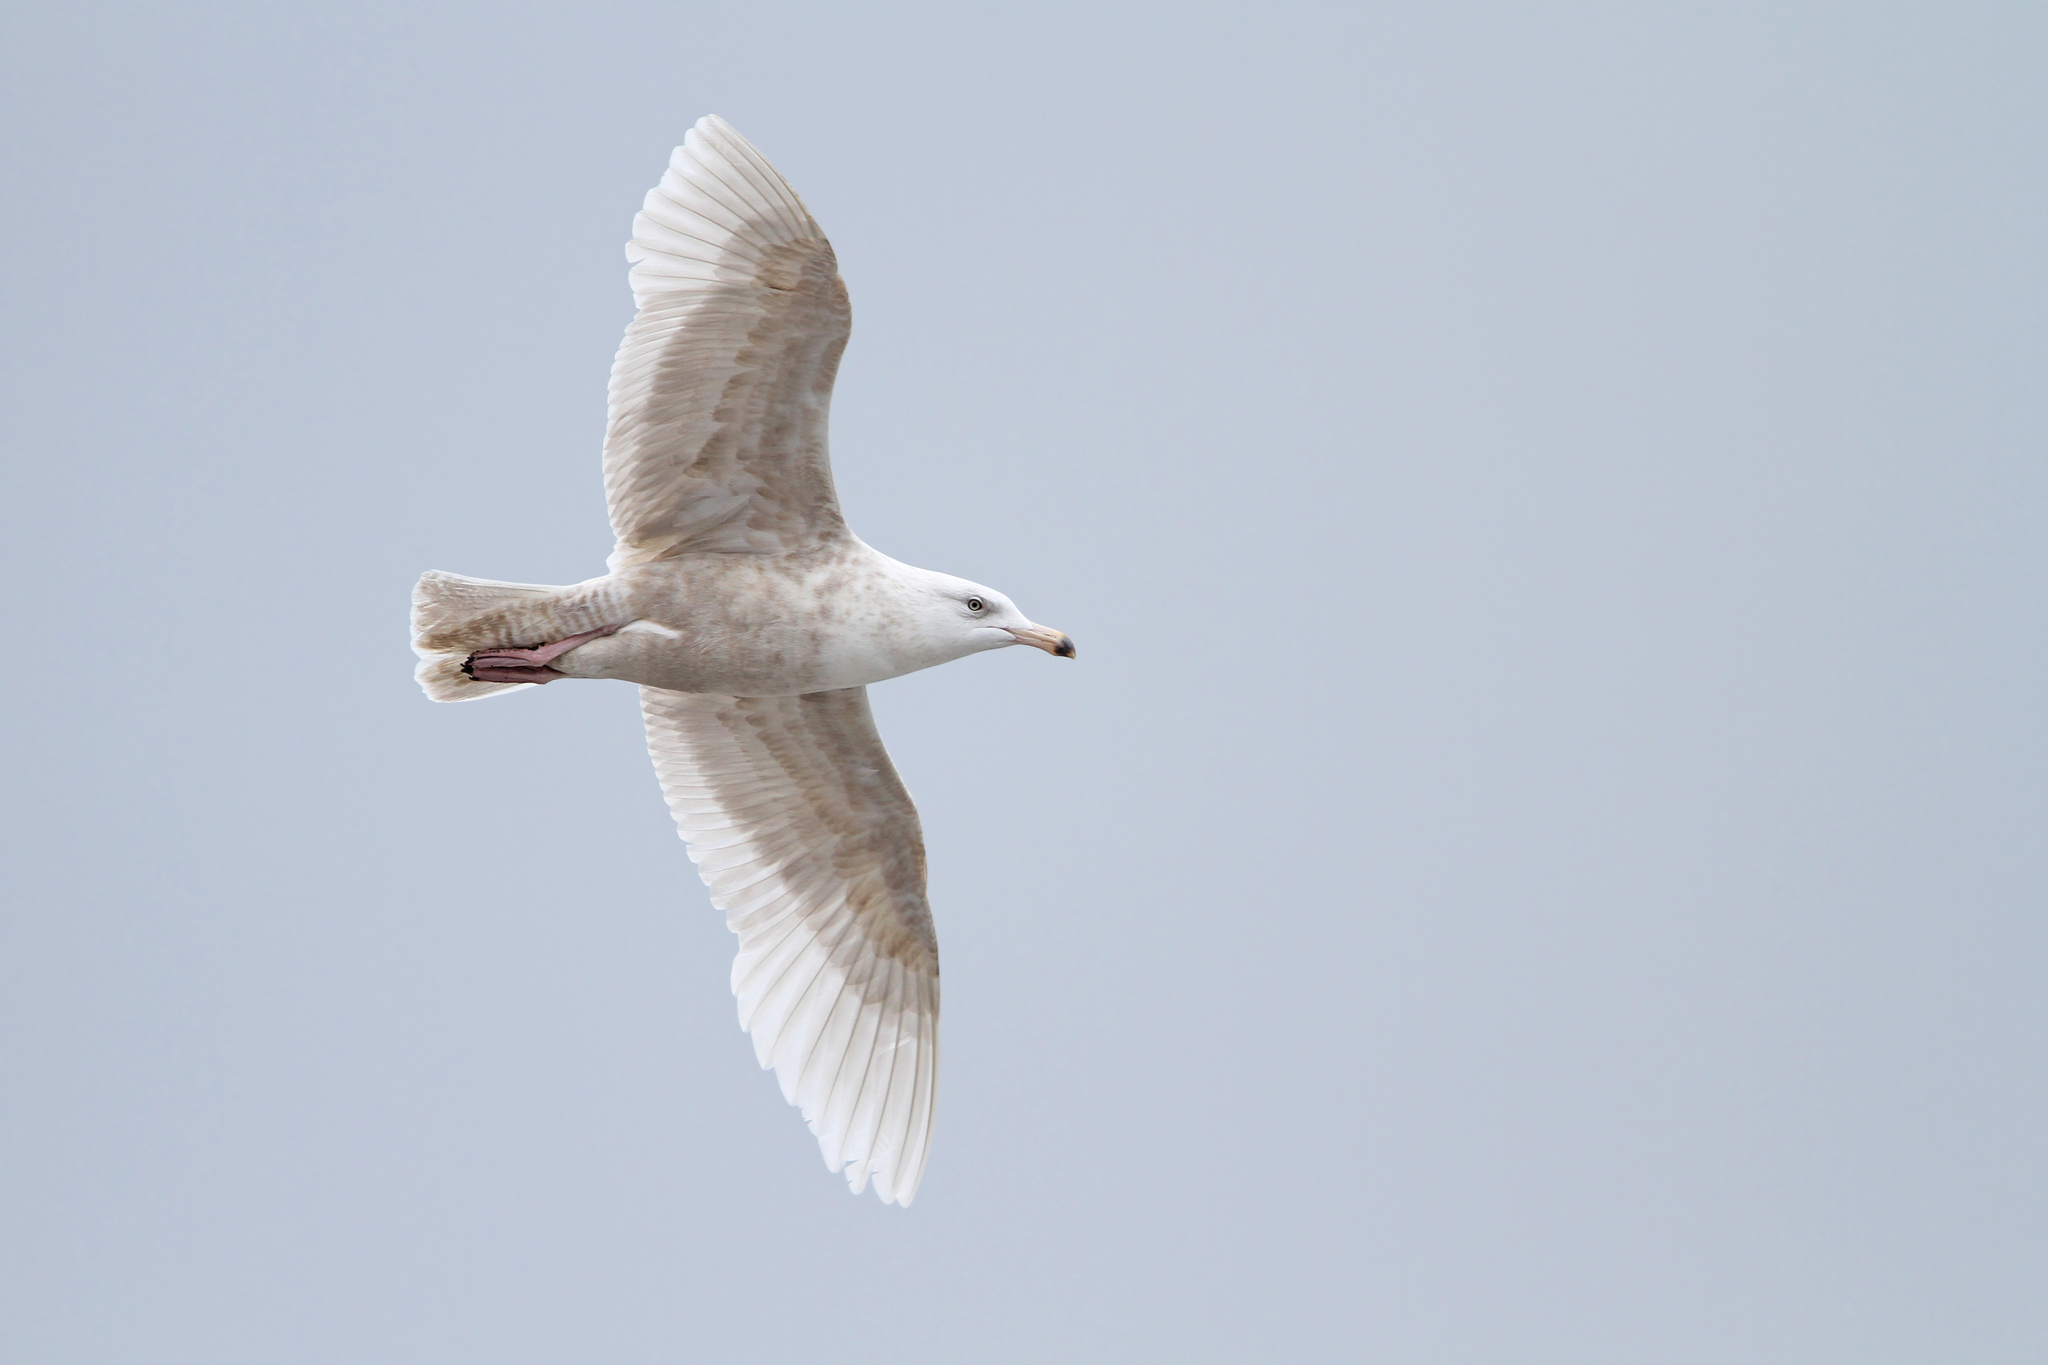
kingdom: Animalia
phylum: Chordata
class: Aves
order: Charadriiformes
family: Laridae
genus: Larus
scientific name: Larus hyperboreus
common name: Glaucous gull
